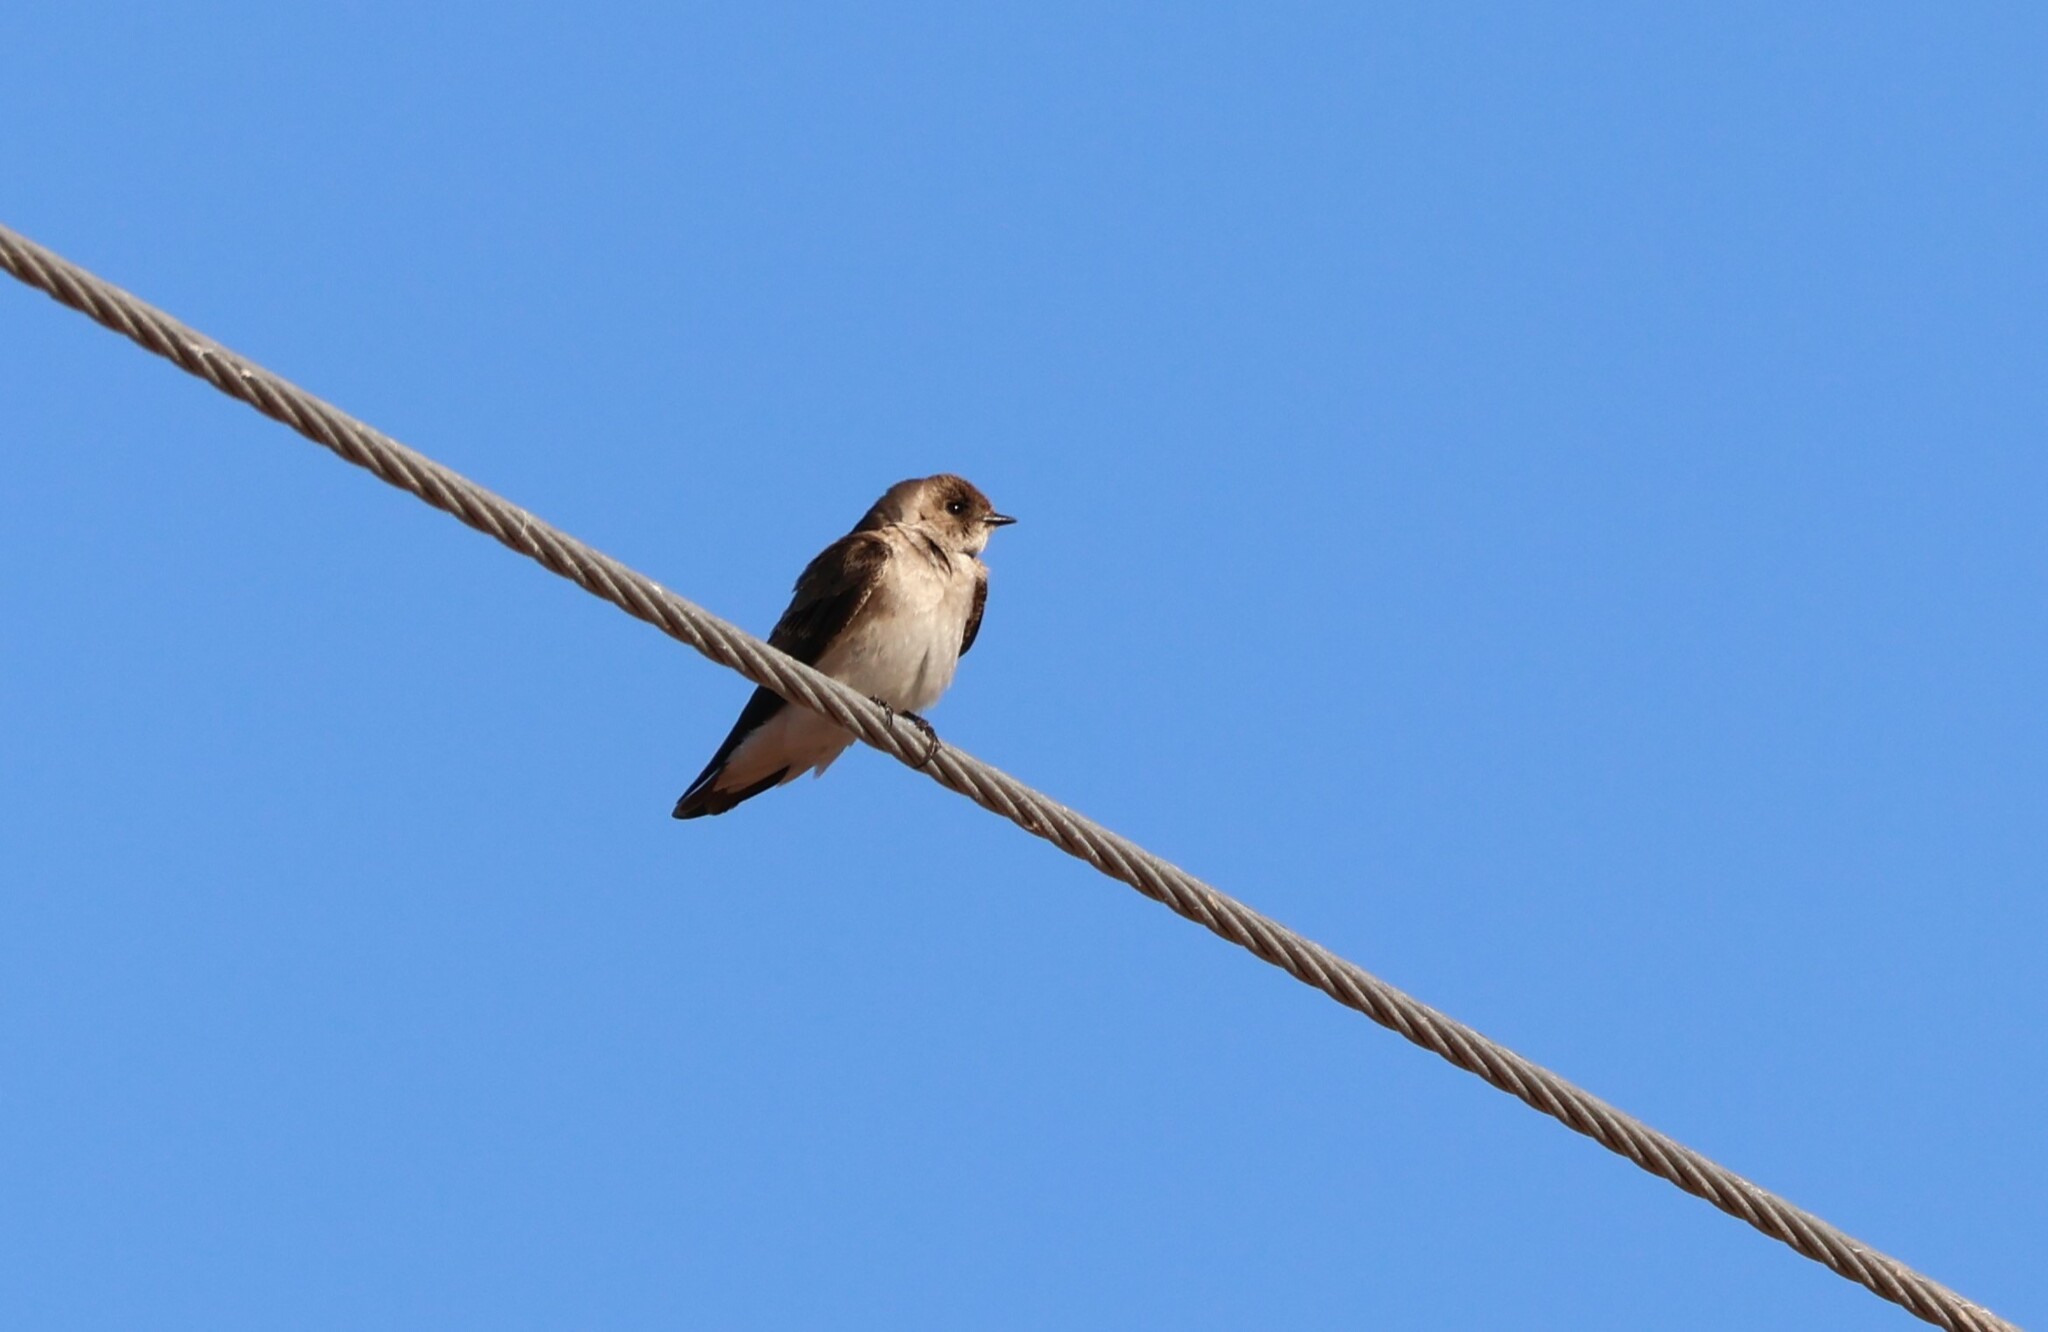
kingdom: Animalia
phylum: Chordata
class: Aves
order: Passeriformes
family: Hirundinidae
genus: Stelgidopteryx
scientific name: Stelgidopteryx serripennis
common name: Northern rough-winged swallow
